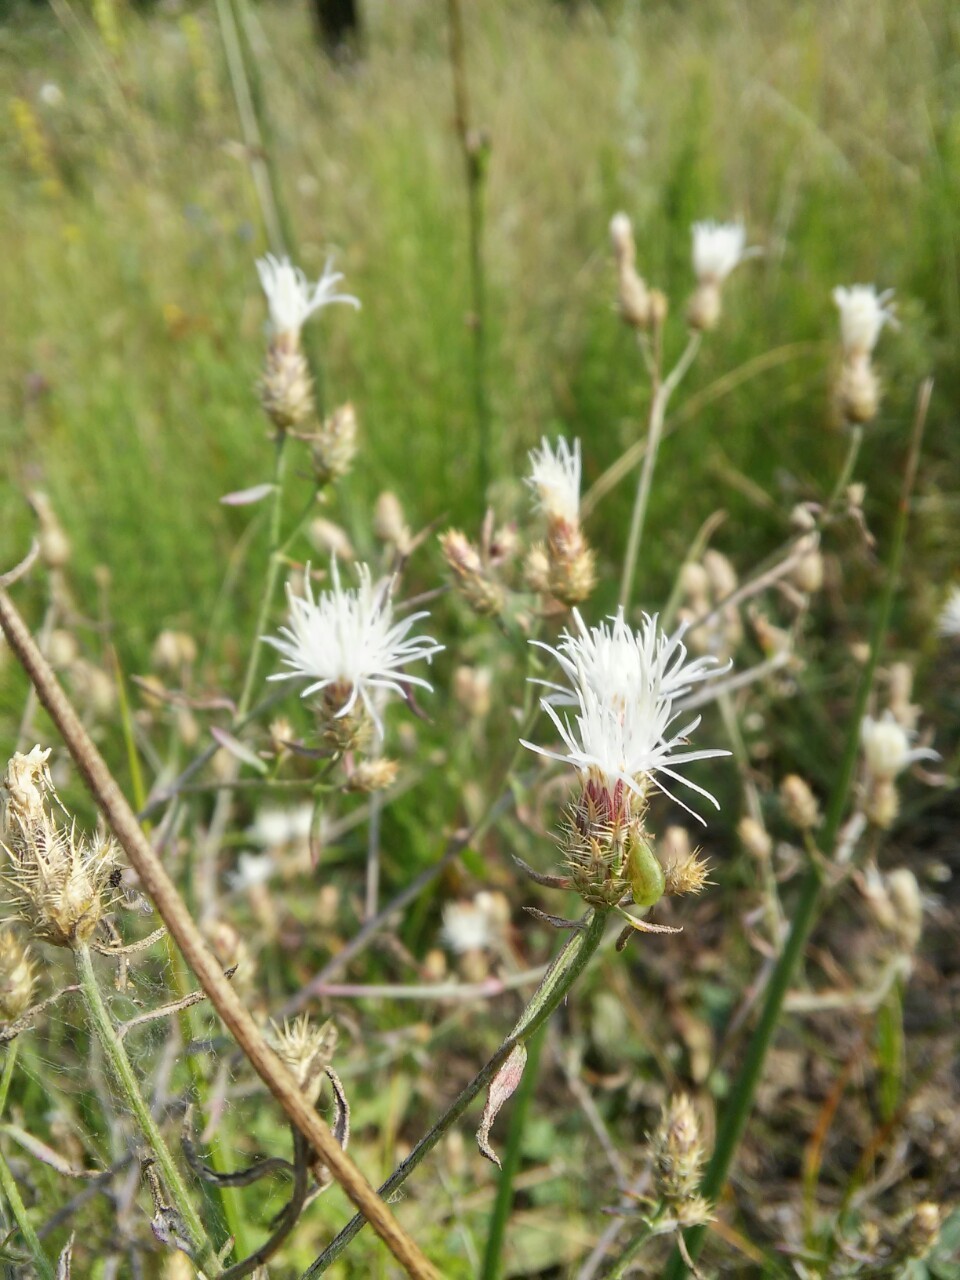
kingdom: Plantae
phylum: Tracheophyta
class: Magnoliopsida
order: Asterales
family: Asteraceae
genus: Centaurea
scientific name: Centaurea diffusa
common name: Diffuse knapweed
